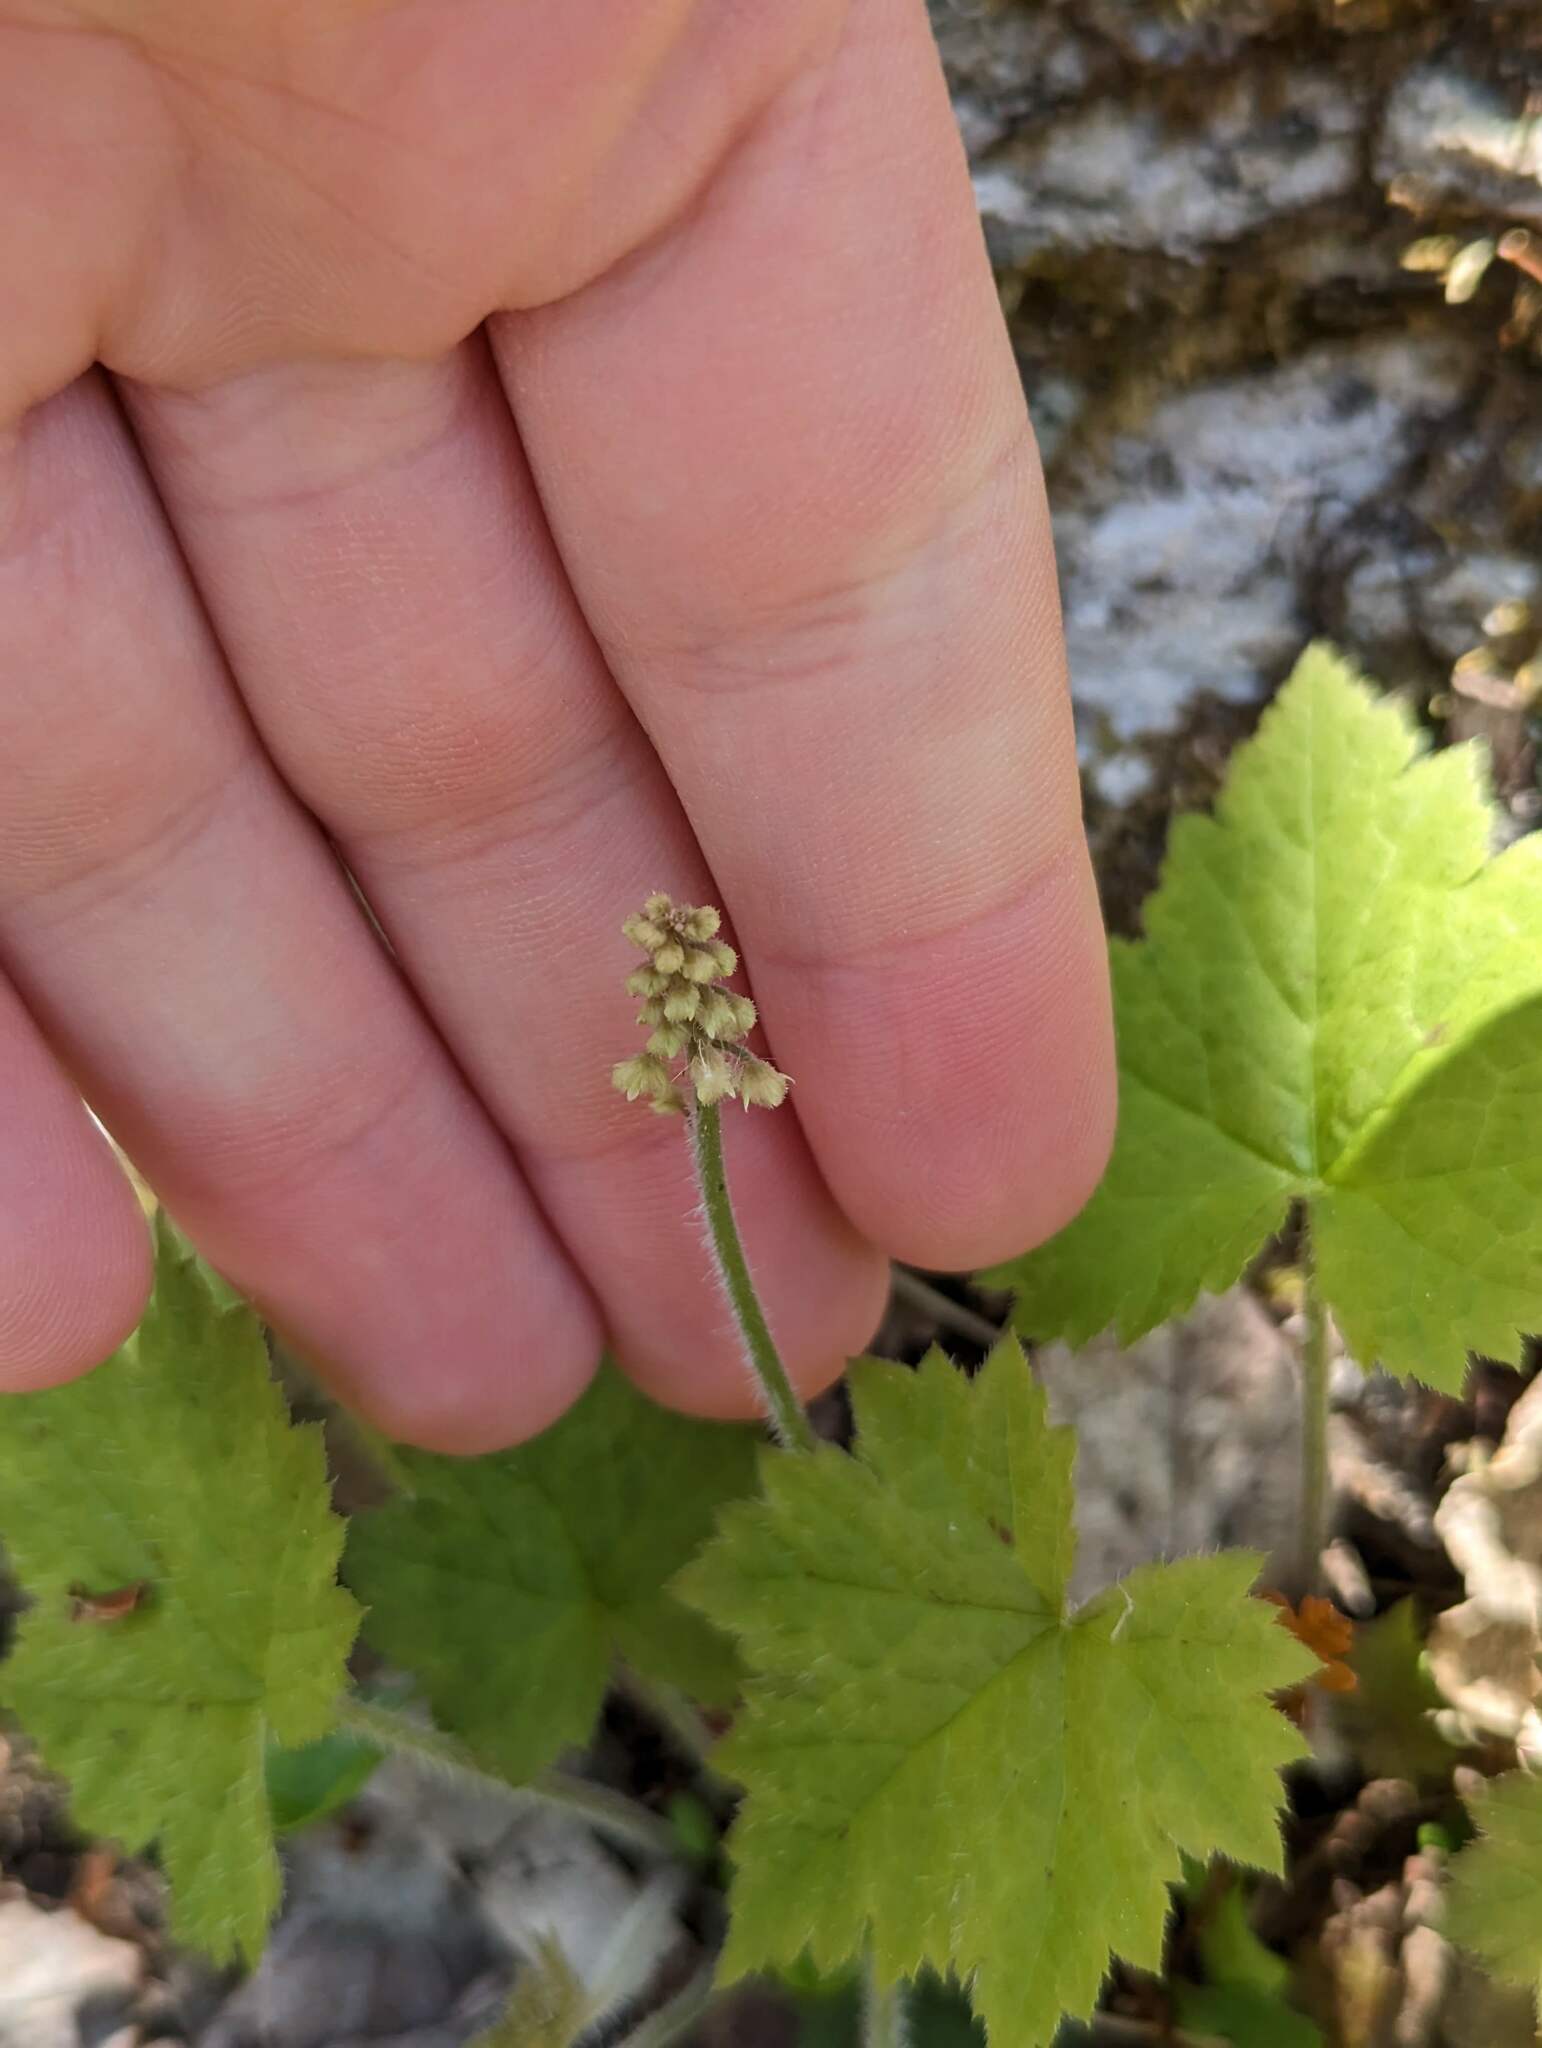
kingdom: Plantae
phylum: Tracheophyta
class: Magnoliopsida
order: Saxifragales
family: Saxifragaceae
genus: Tiarella
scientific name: Tiarella stolonifera
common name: Stoloniferous foamflower
